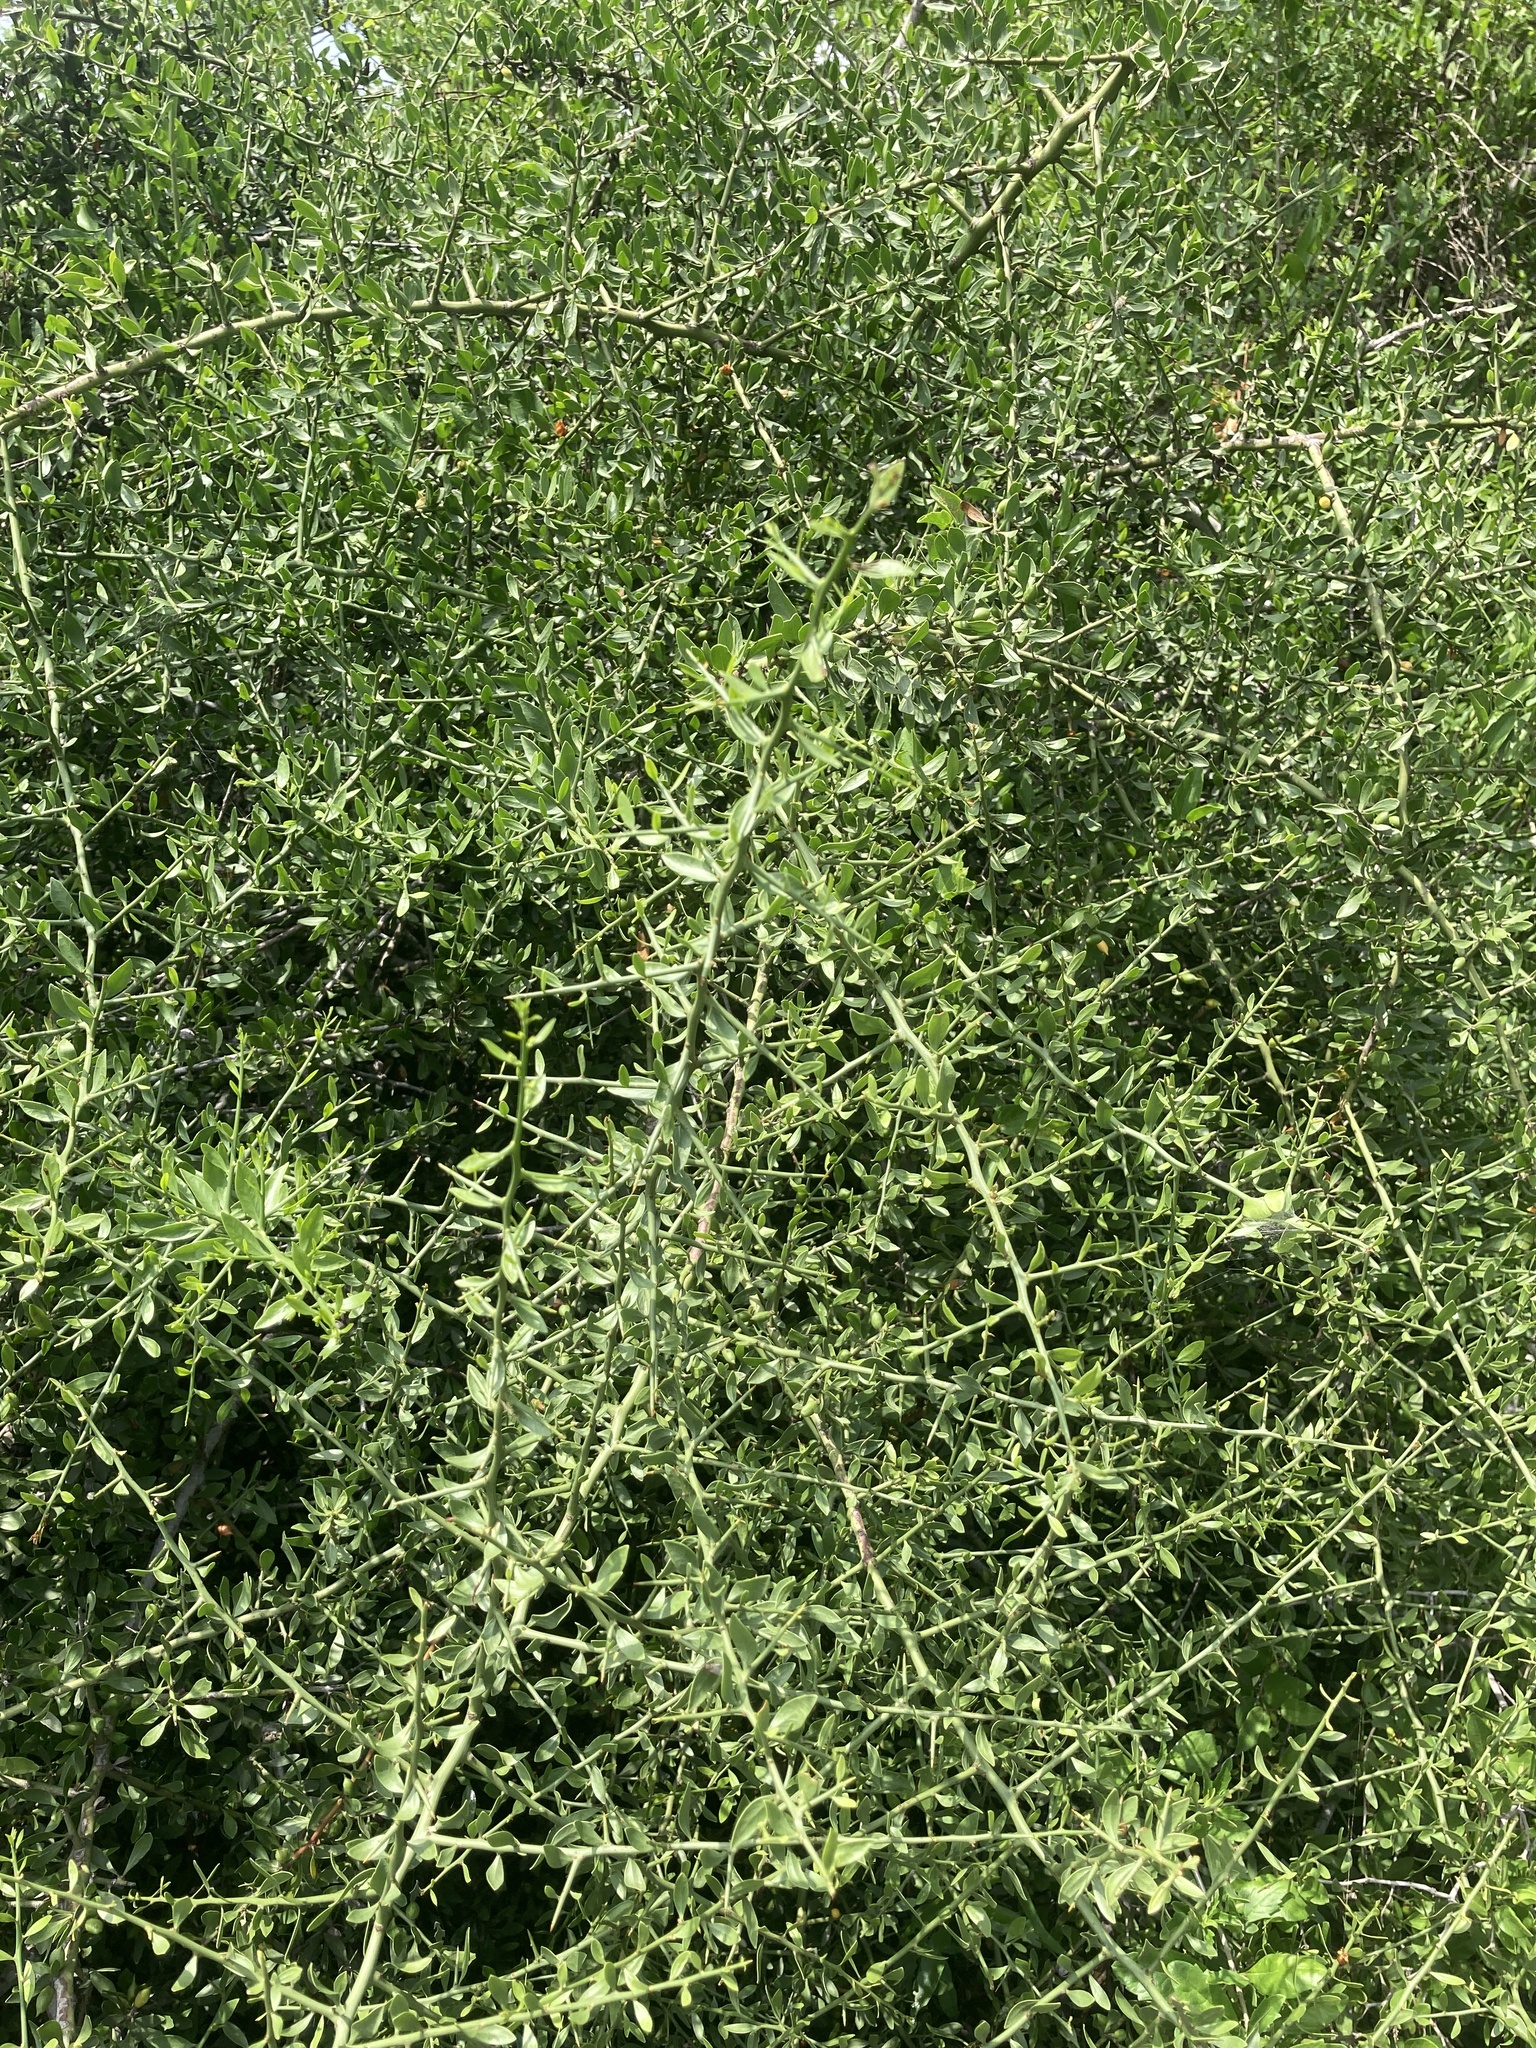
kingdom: Plantae
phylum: Tracheophyta
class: Magnoliopsida
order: Celastrales
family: Celastraceae
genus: Monteverdia
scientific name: Monteverdia spinosa
